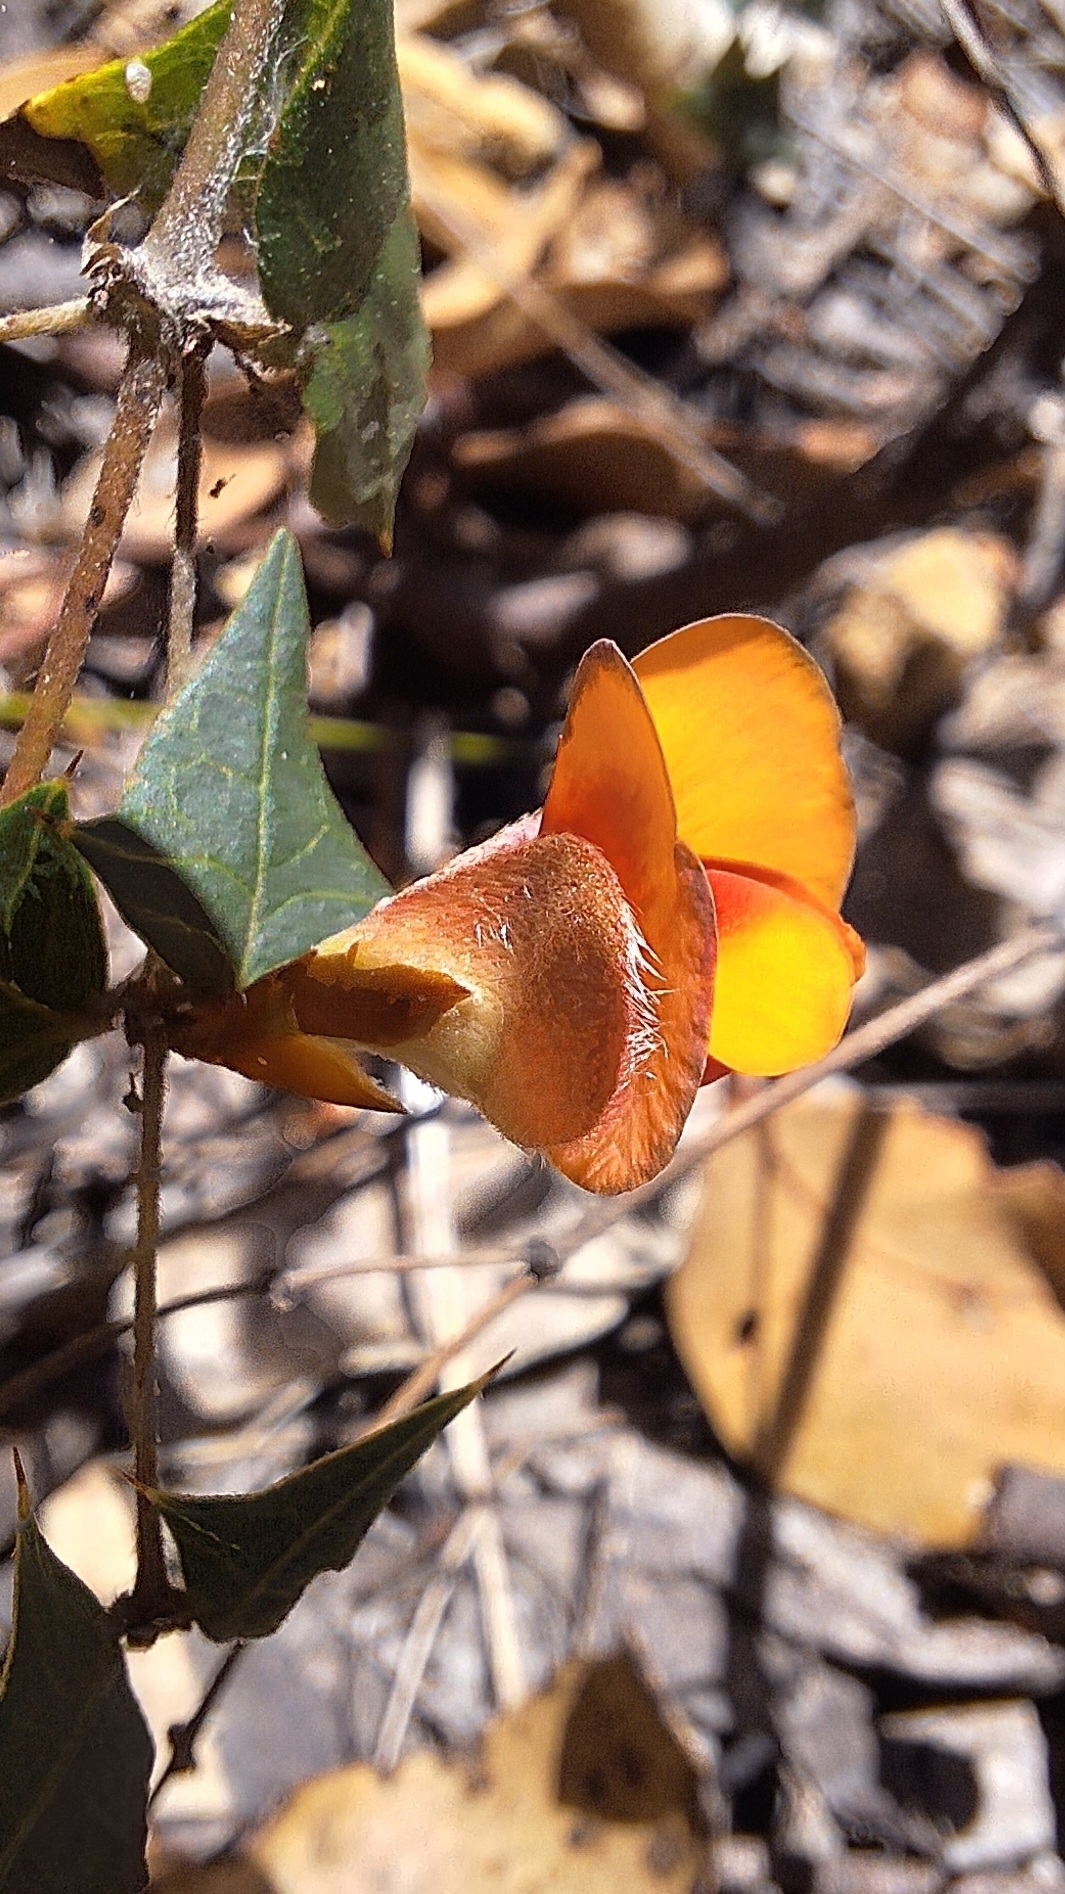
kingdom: Plantae
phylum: Tracheophyta
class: Magnoliopsida
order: Fabales
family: Fabaceae
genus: Platylobium
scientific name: Platylobium obtusangulum
